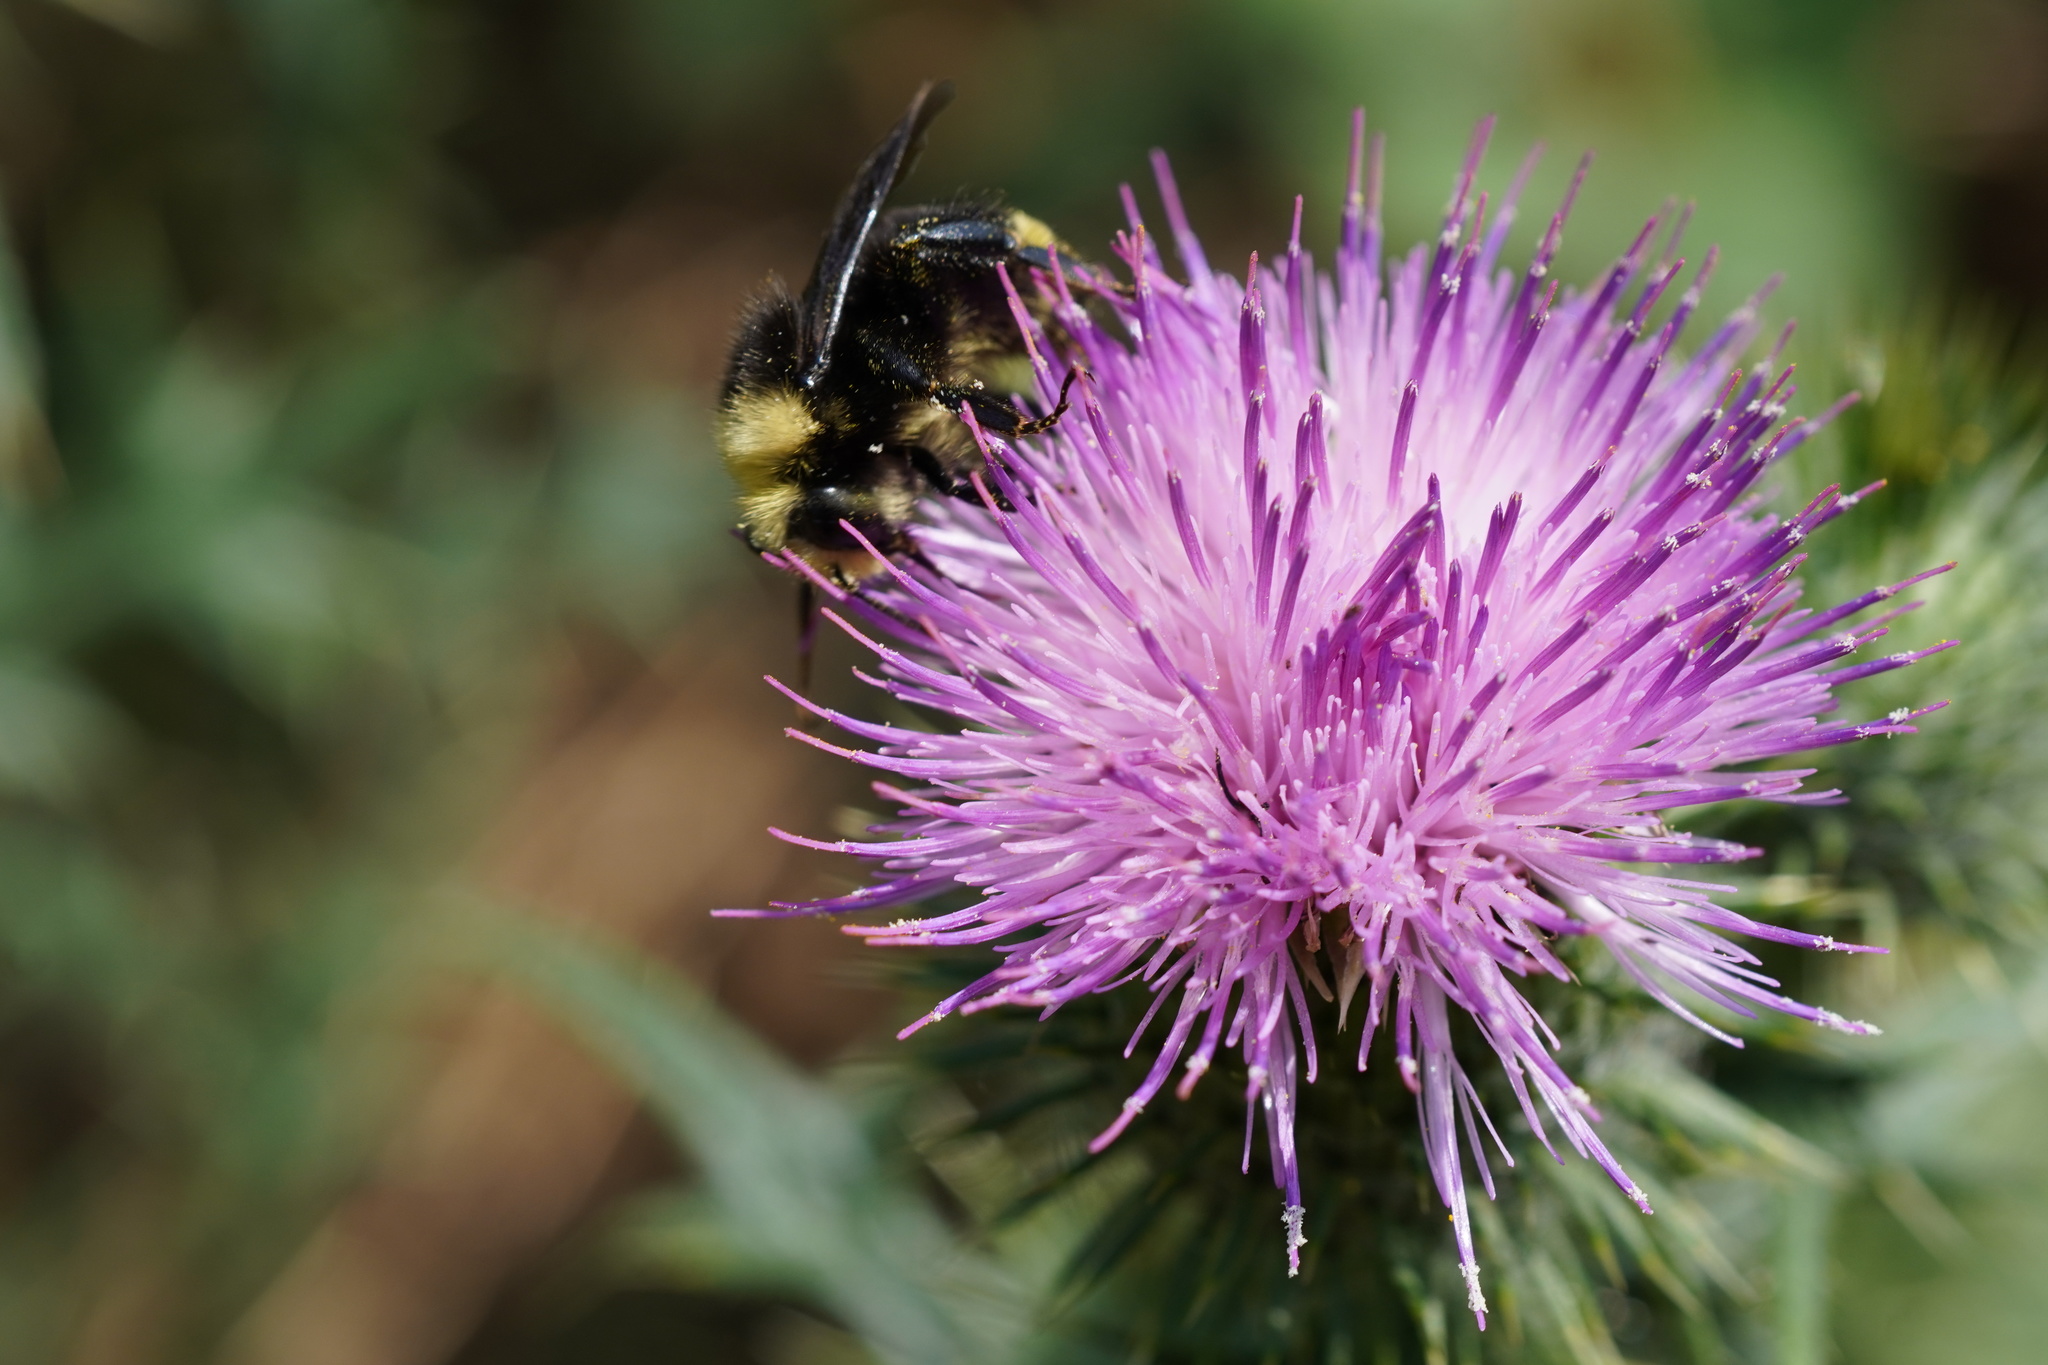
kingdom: Animalia
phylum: Arthropoda
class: Insecta
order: Hymenoptera
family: Apidae
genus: Bombus
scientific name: Bombus vosnesenskii
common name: Vosnesensky bumble bee
